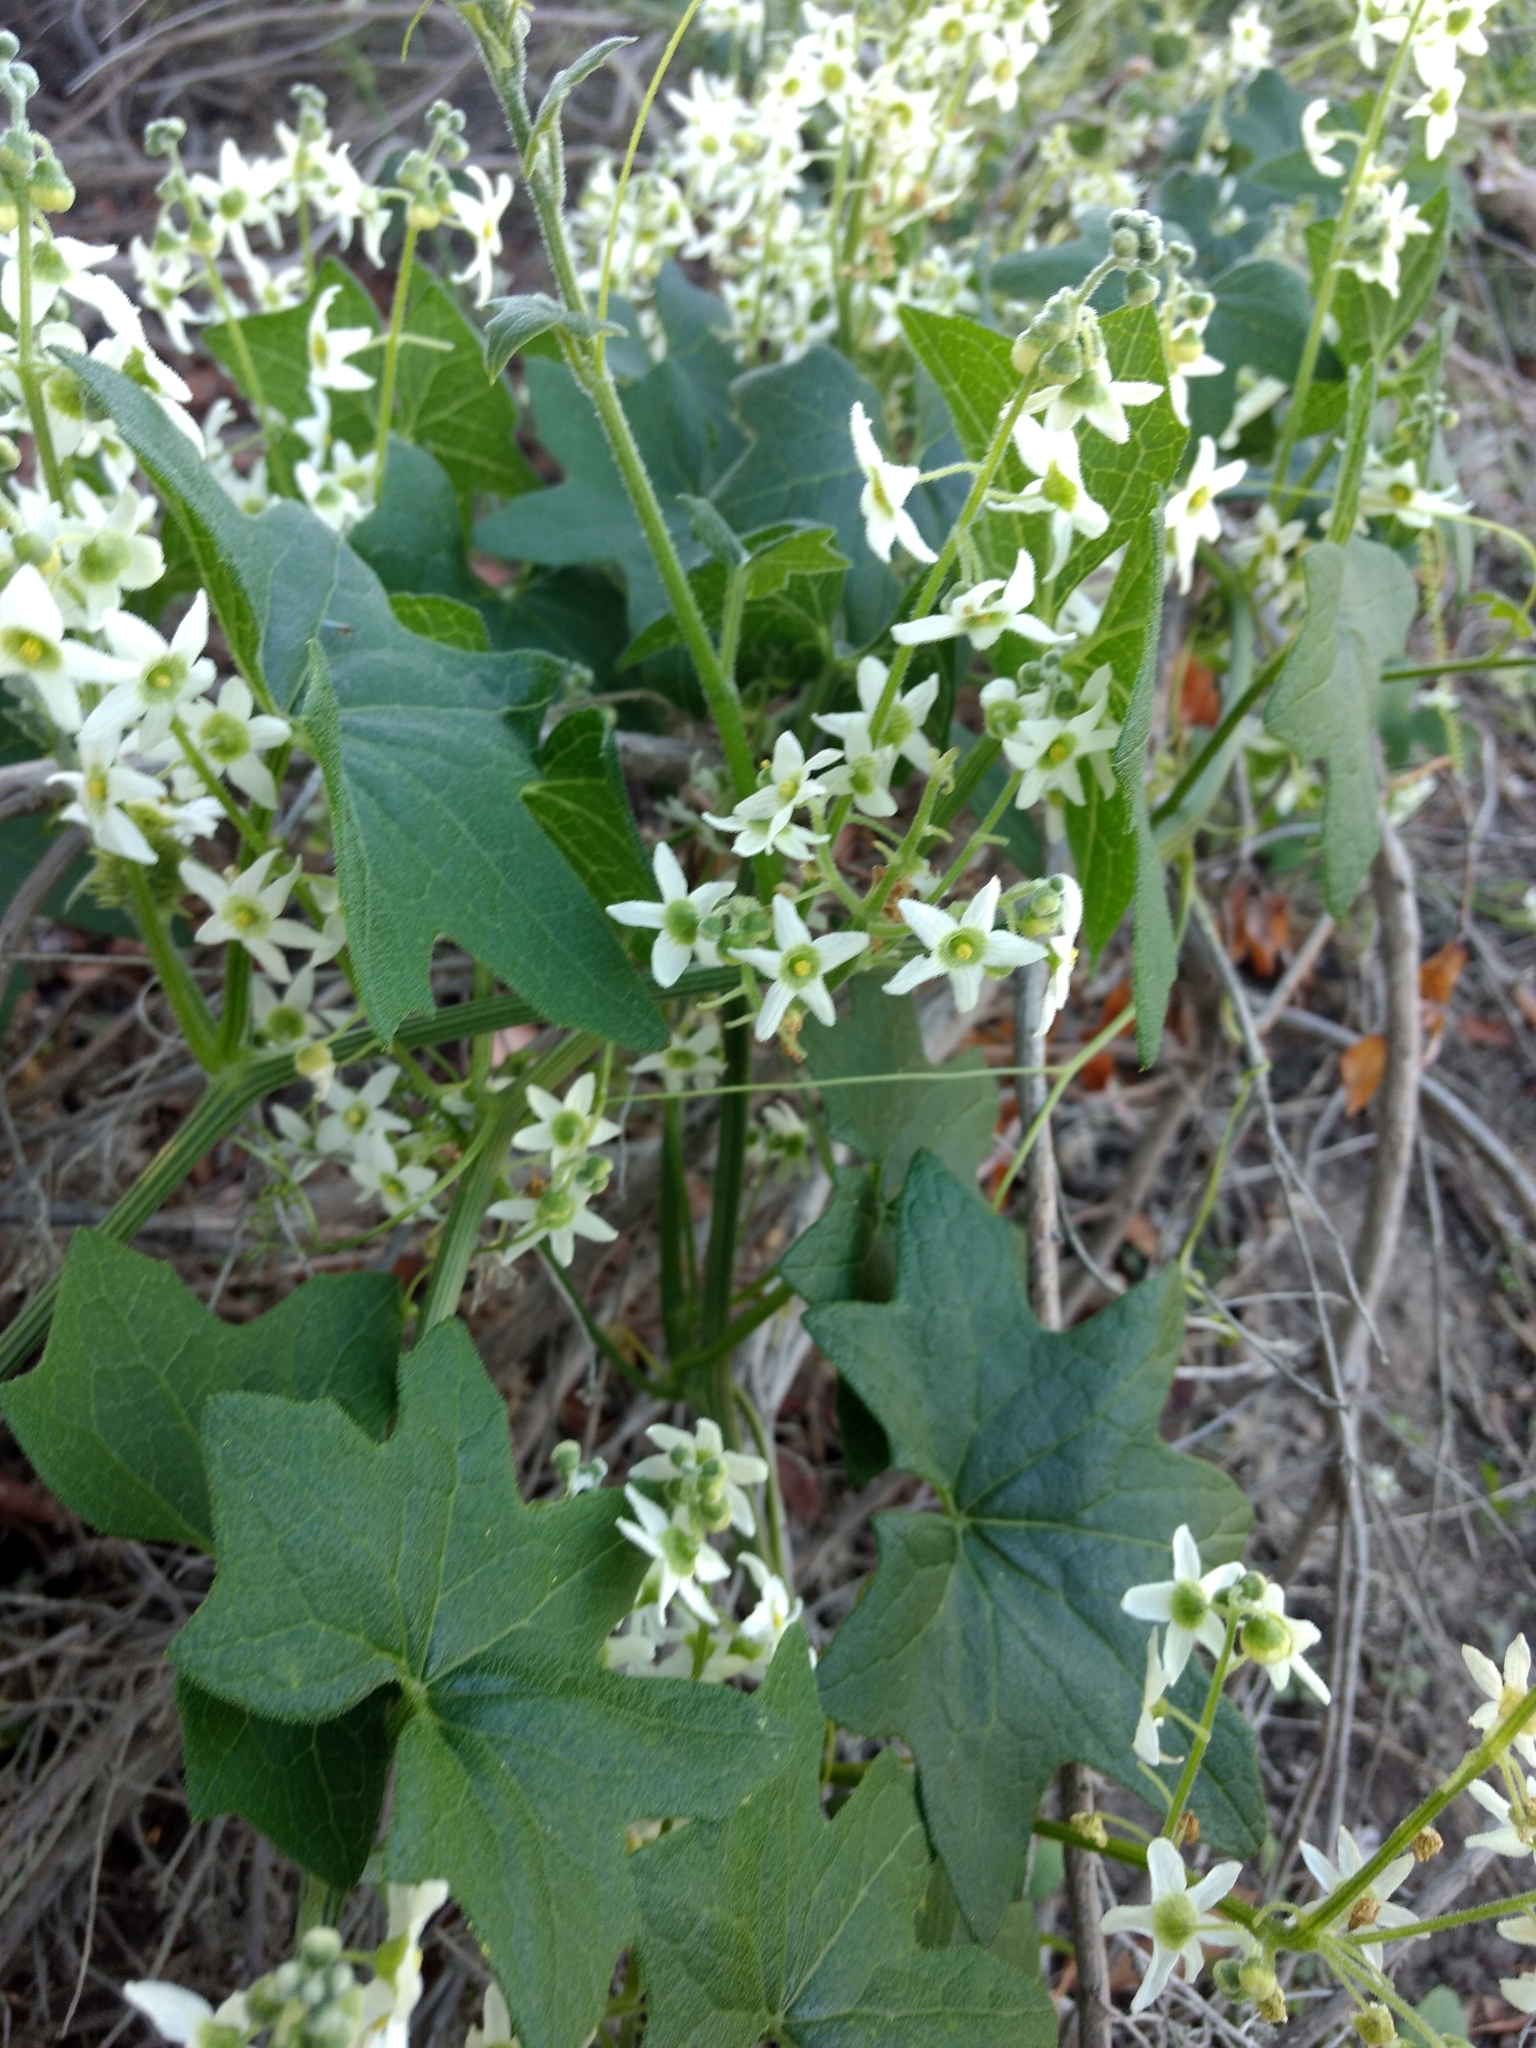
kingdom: Plantae
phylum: Tracheophyta
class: Magnoliopsida
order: Cucurbitales
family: Cucurbitaceae
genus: Marah
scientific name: Marah macrocarpa
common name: Cucamonga manroot
